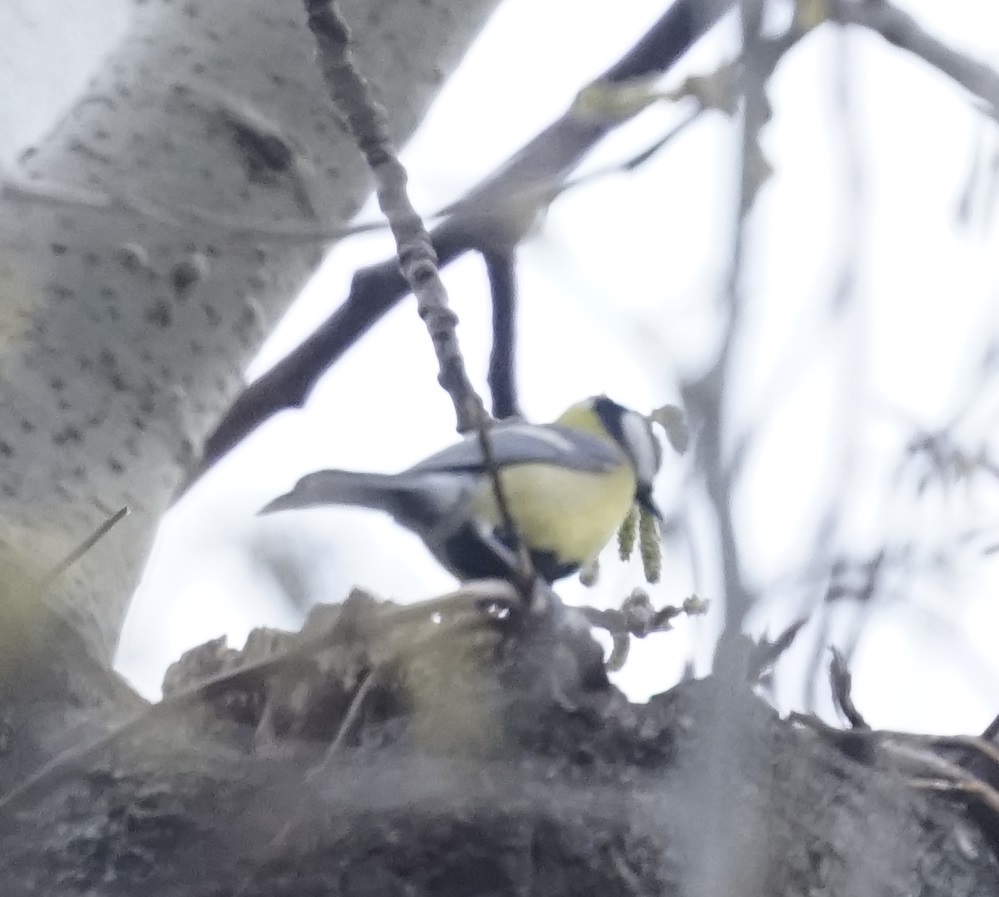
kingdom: Animalia
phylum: Chordata
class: Aves
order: Passeriformes
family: Paridae
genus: Parus
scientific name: Parus major
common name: Great tit
